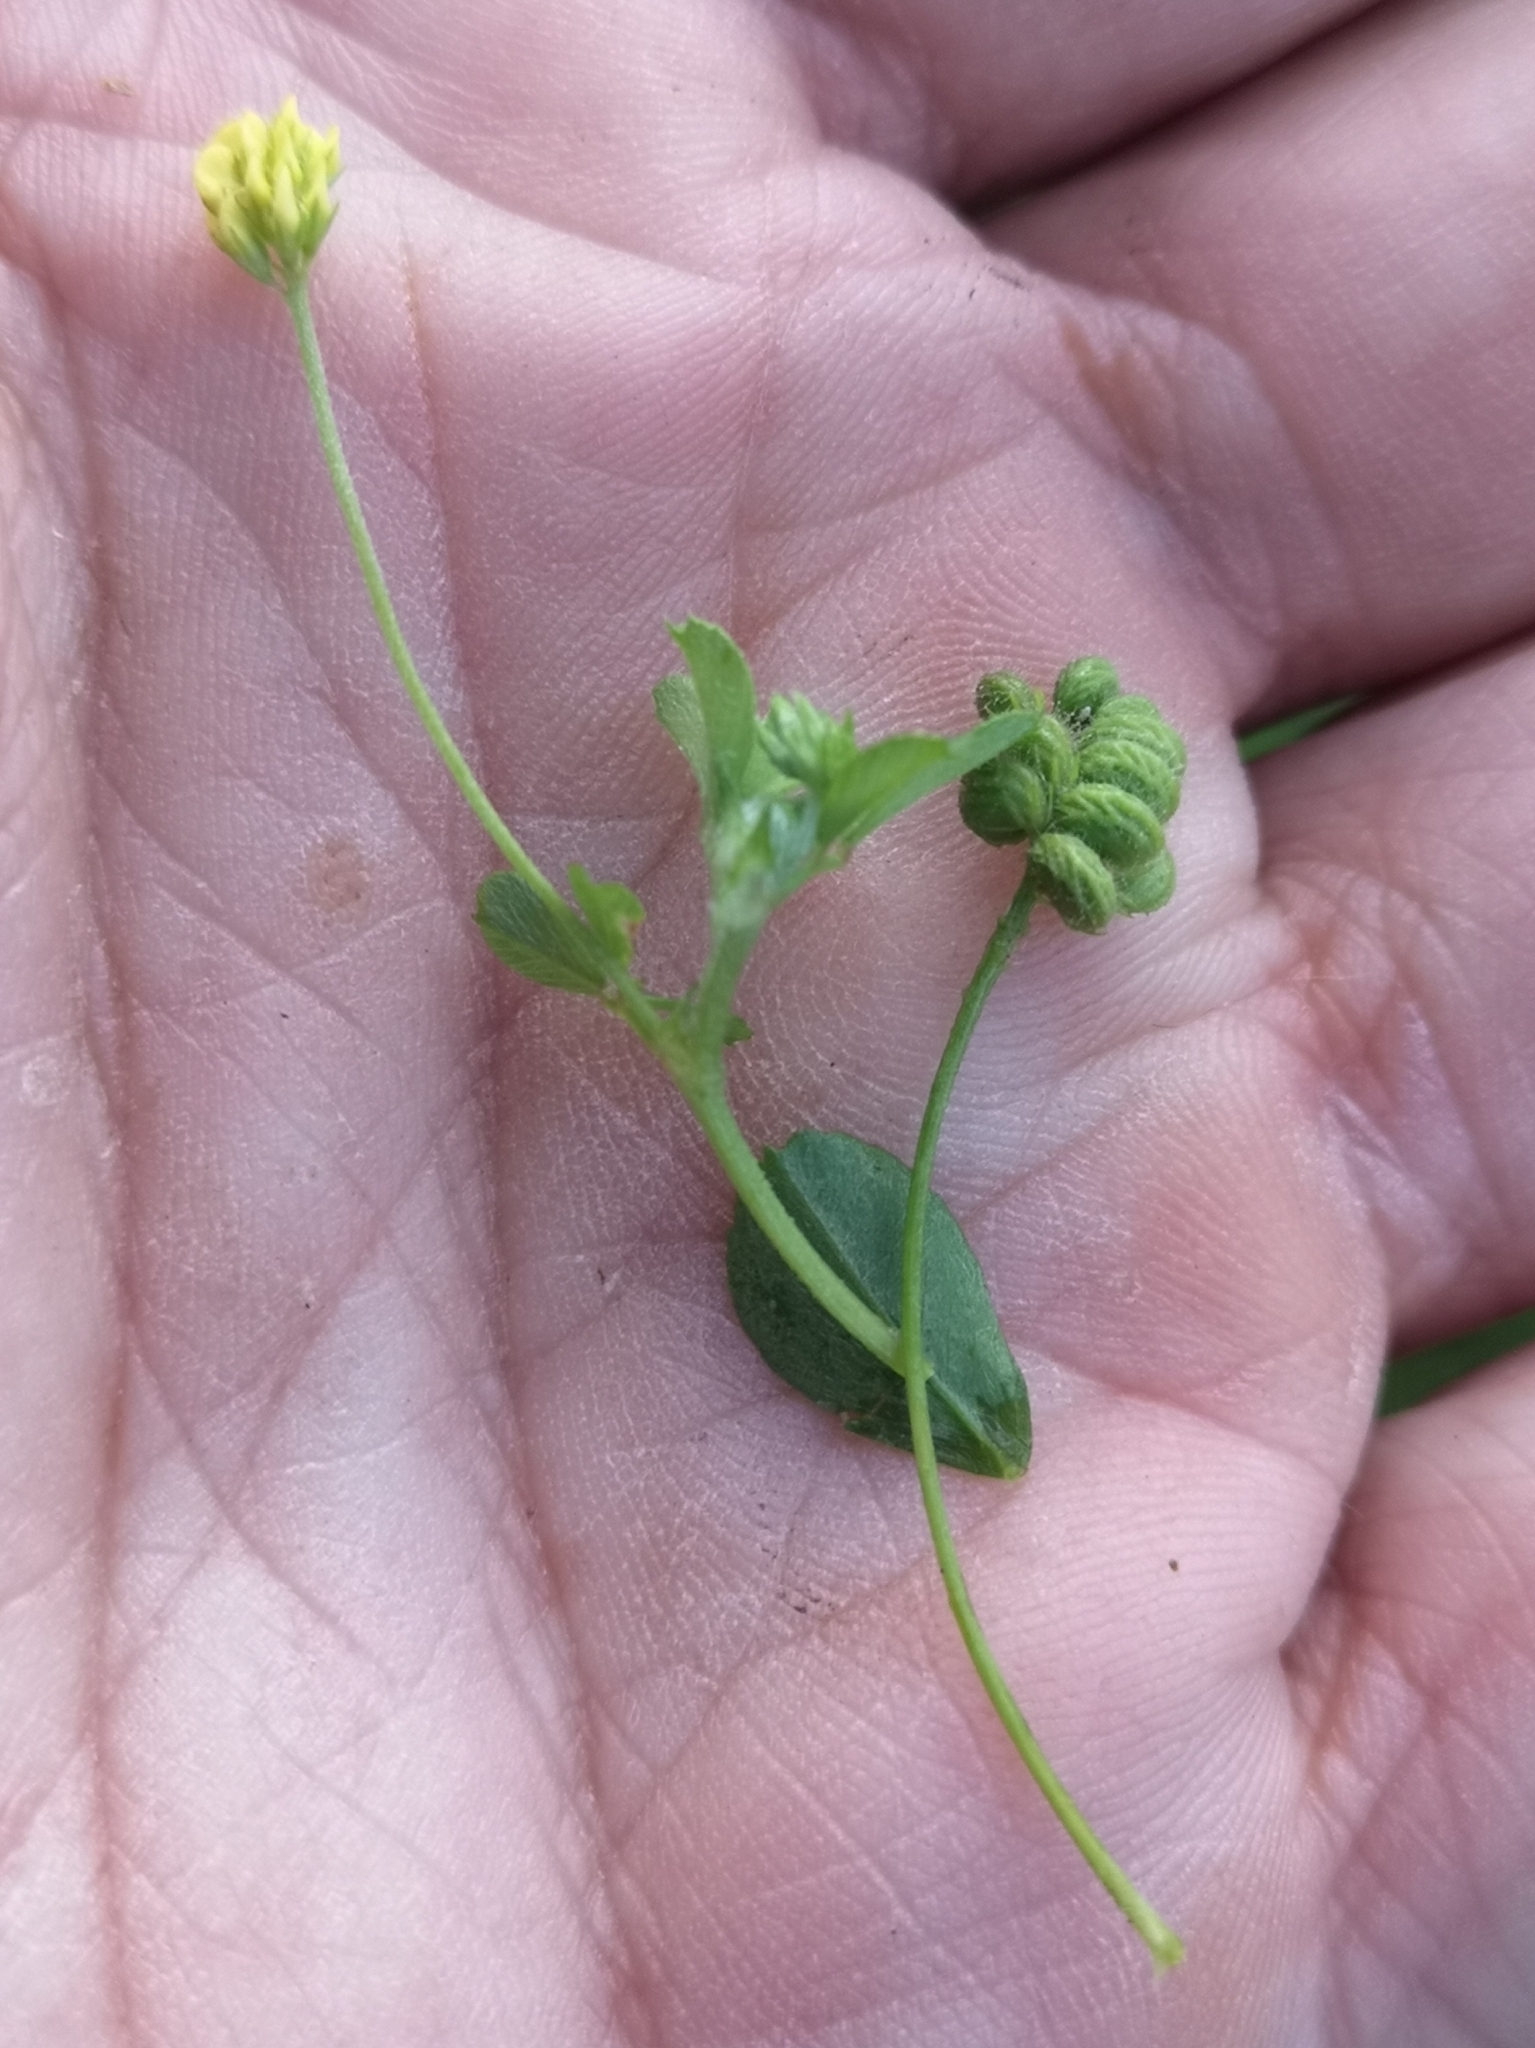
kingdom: Plantae
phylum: Tracheophyta
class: Magnoliopsida
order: Fabales
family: Fabaceae
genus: Medicago
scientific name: Medicago lupulina
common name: Black medick
